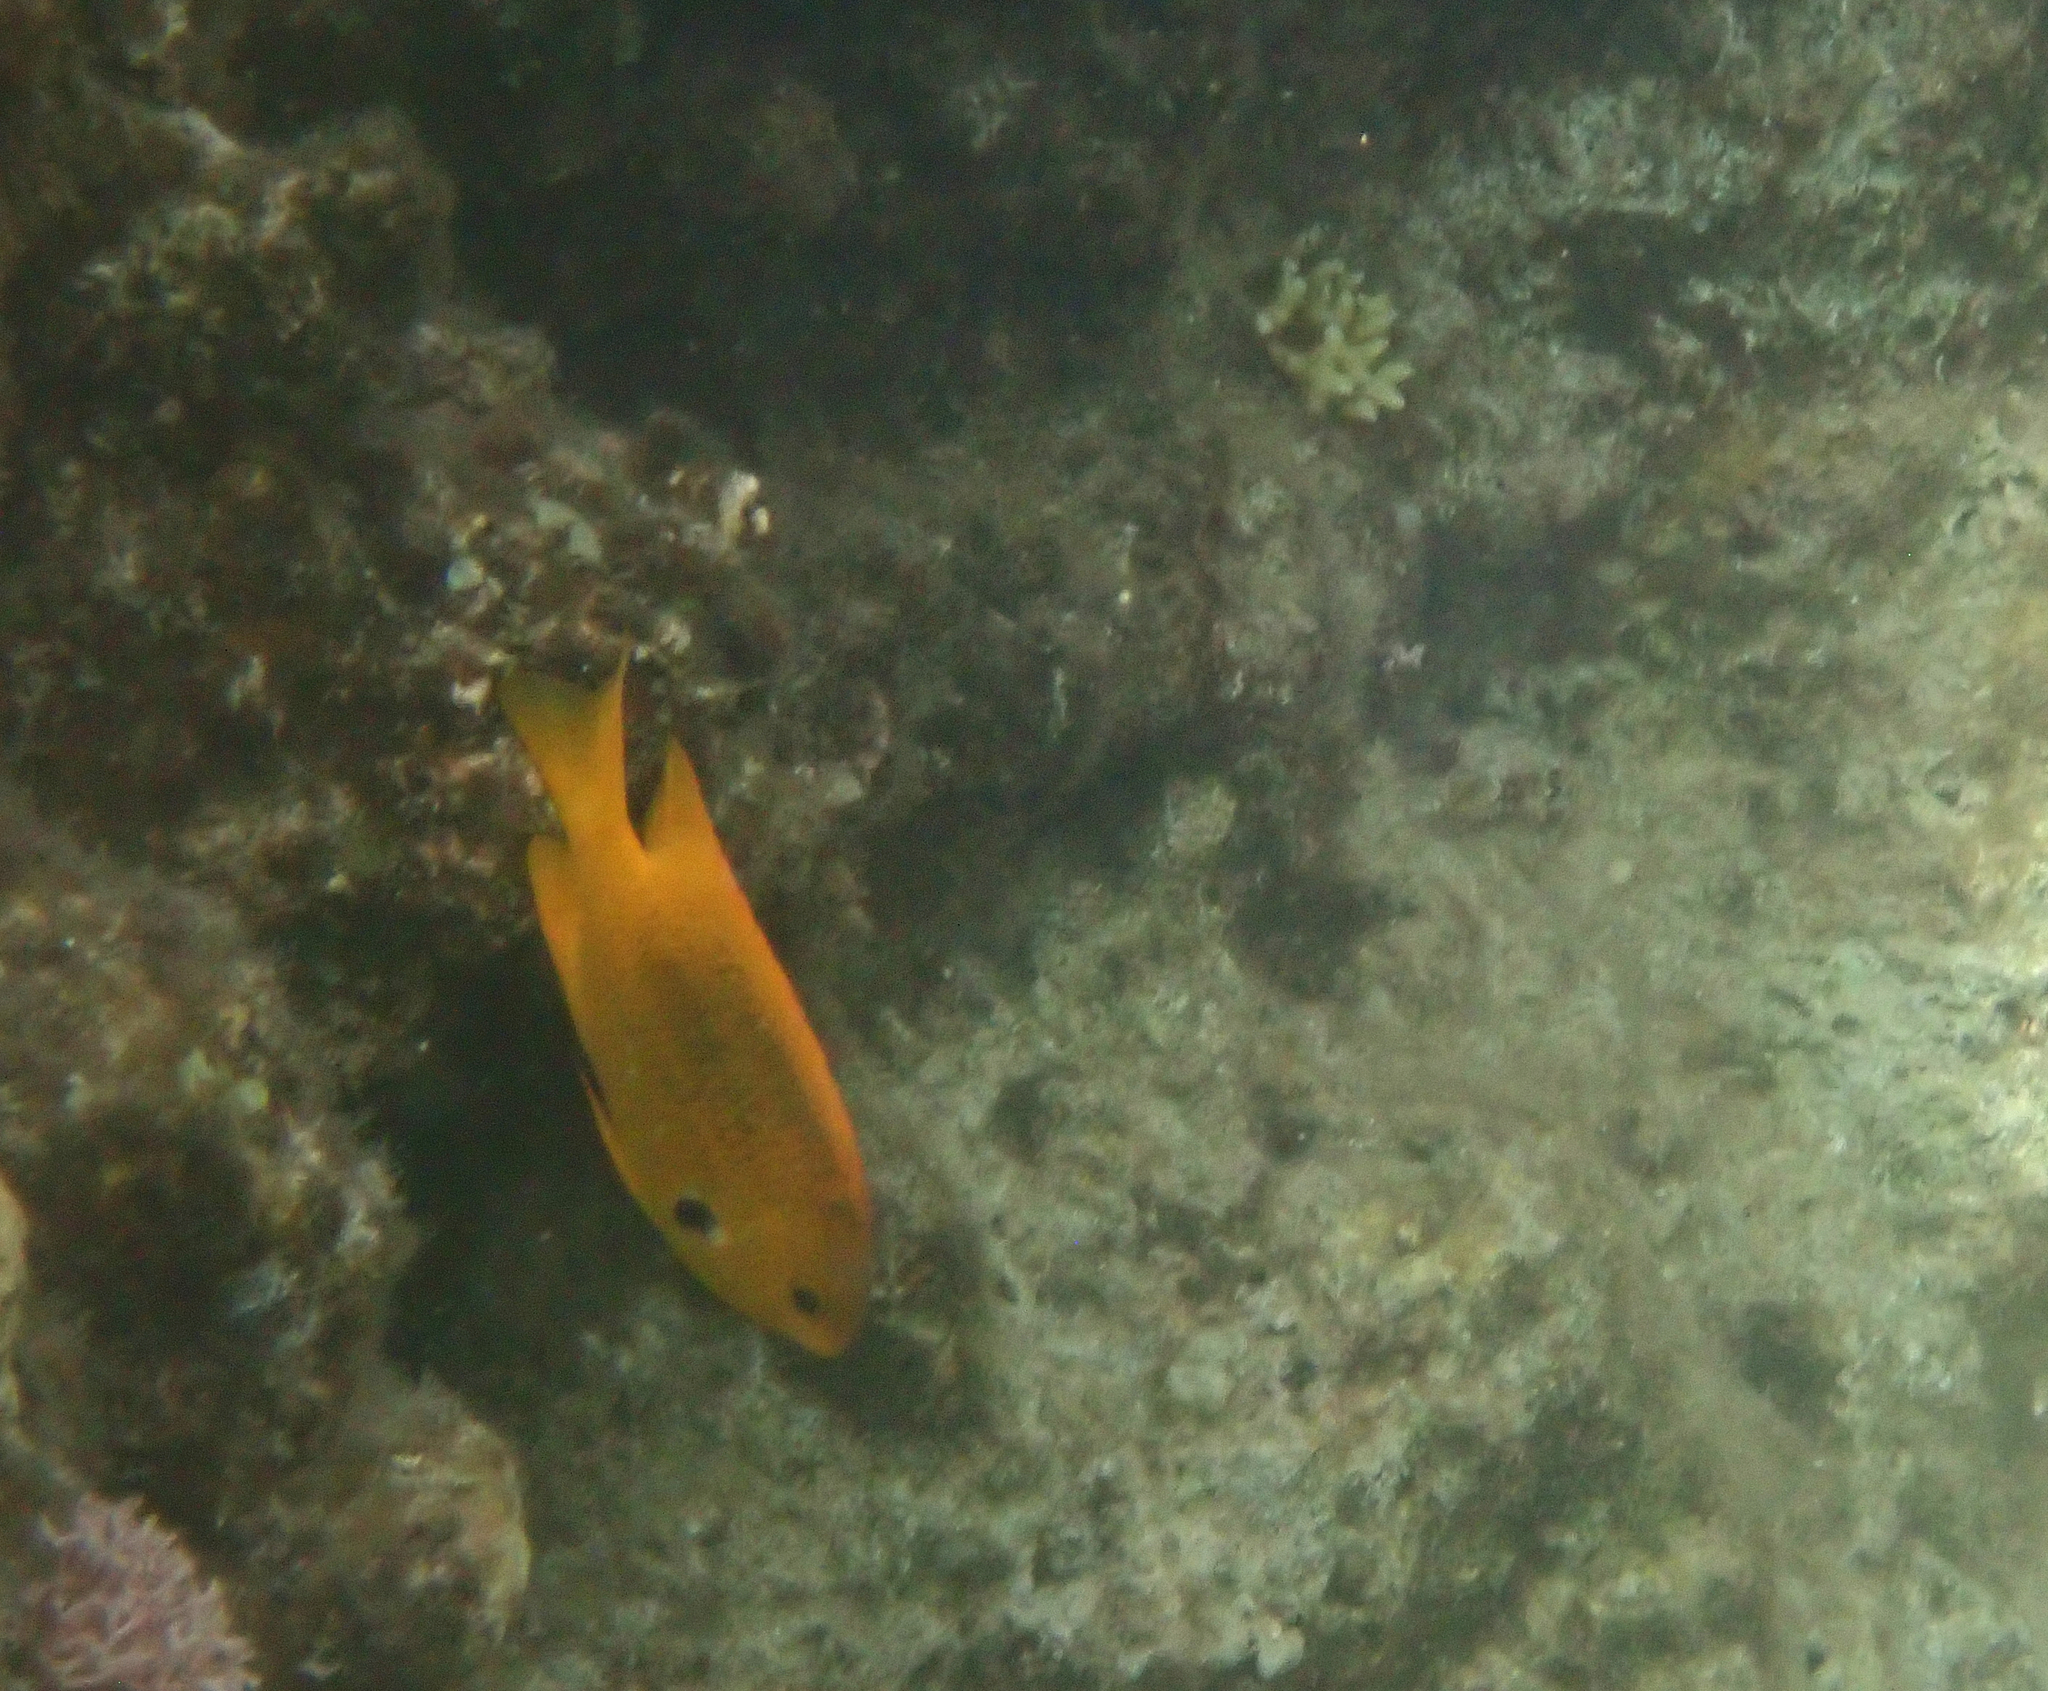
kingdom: Animalia
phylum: Chordata
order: Perciformes
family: Pomacentridae
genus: Pomacentrus
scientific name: Pomacentrus sulfureus
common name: Sulfur damsel
